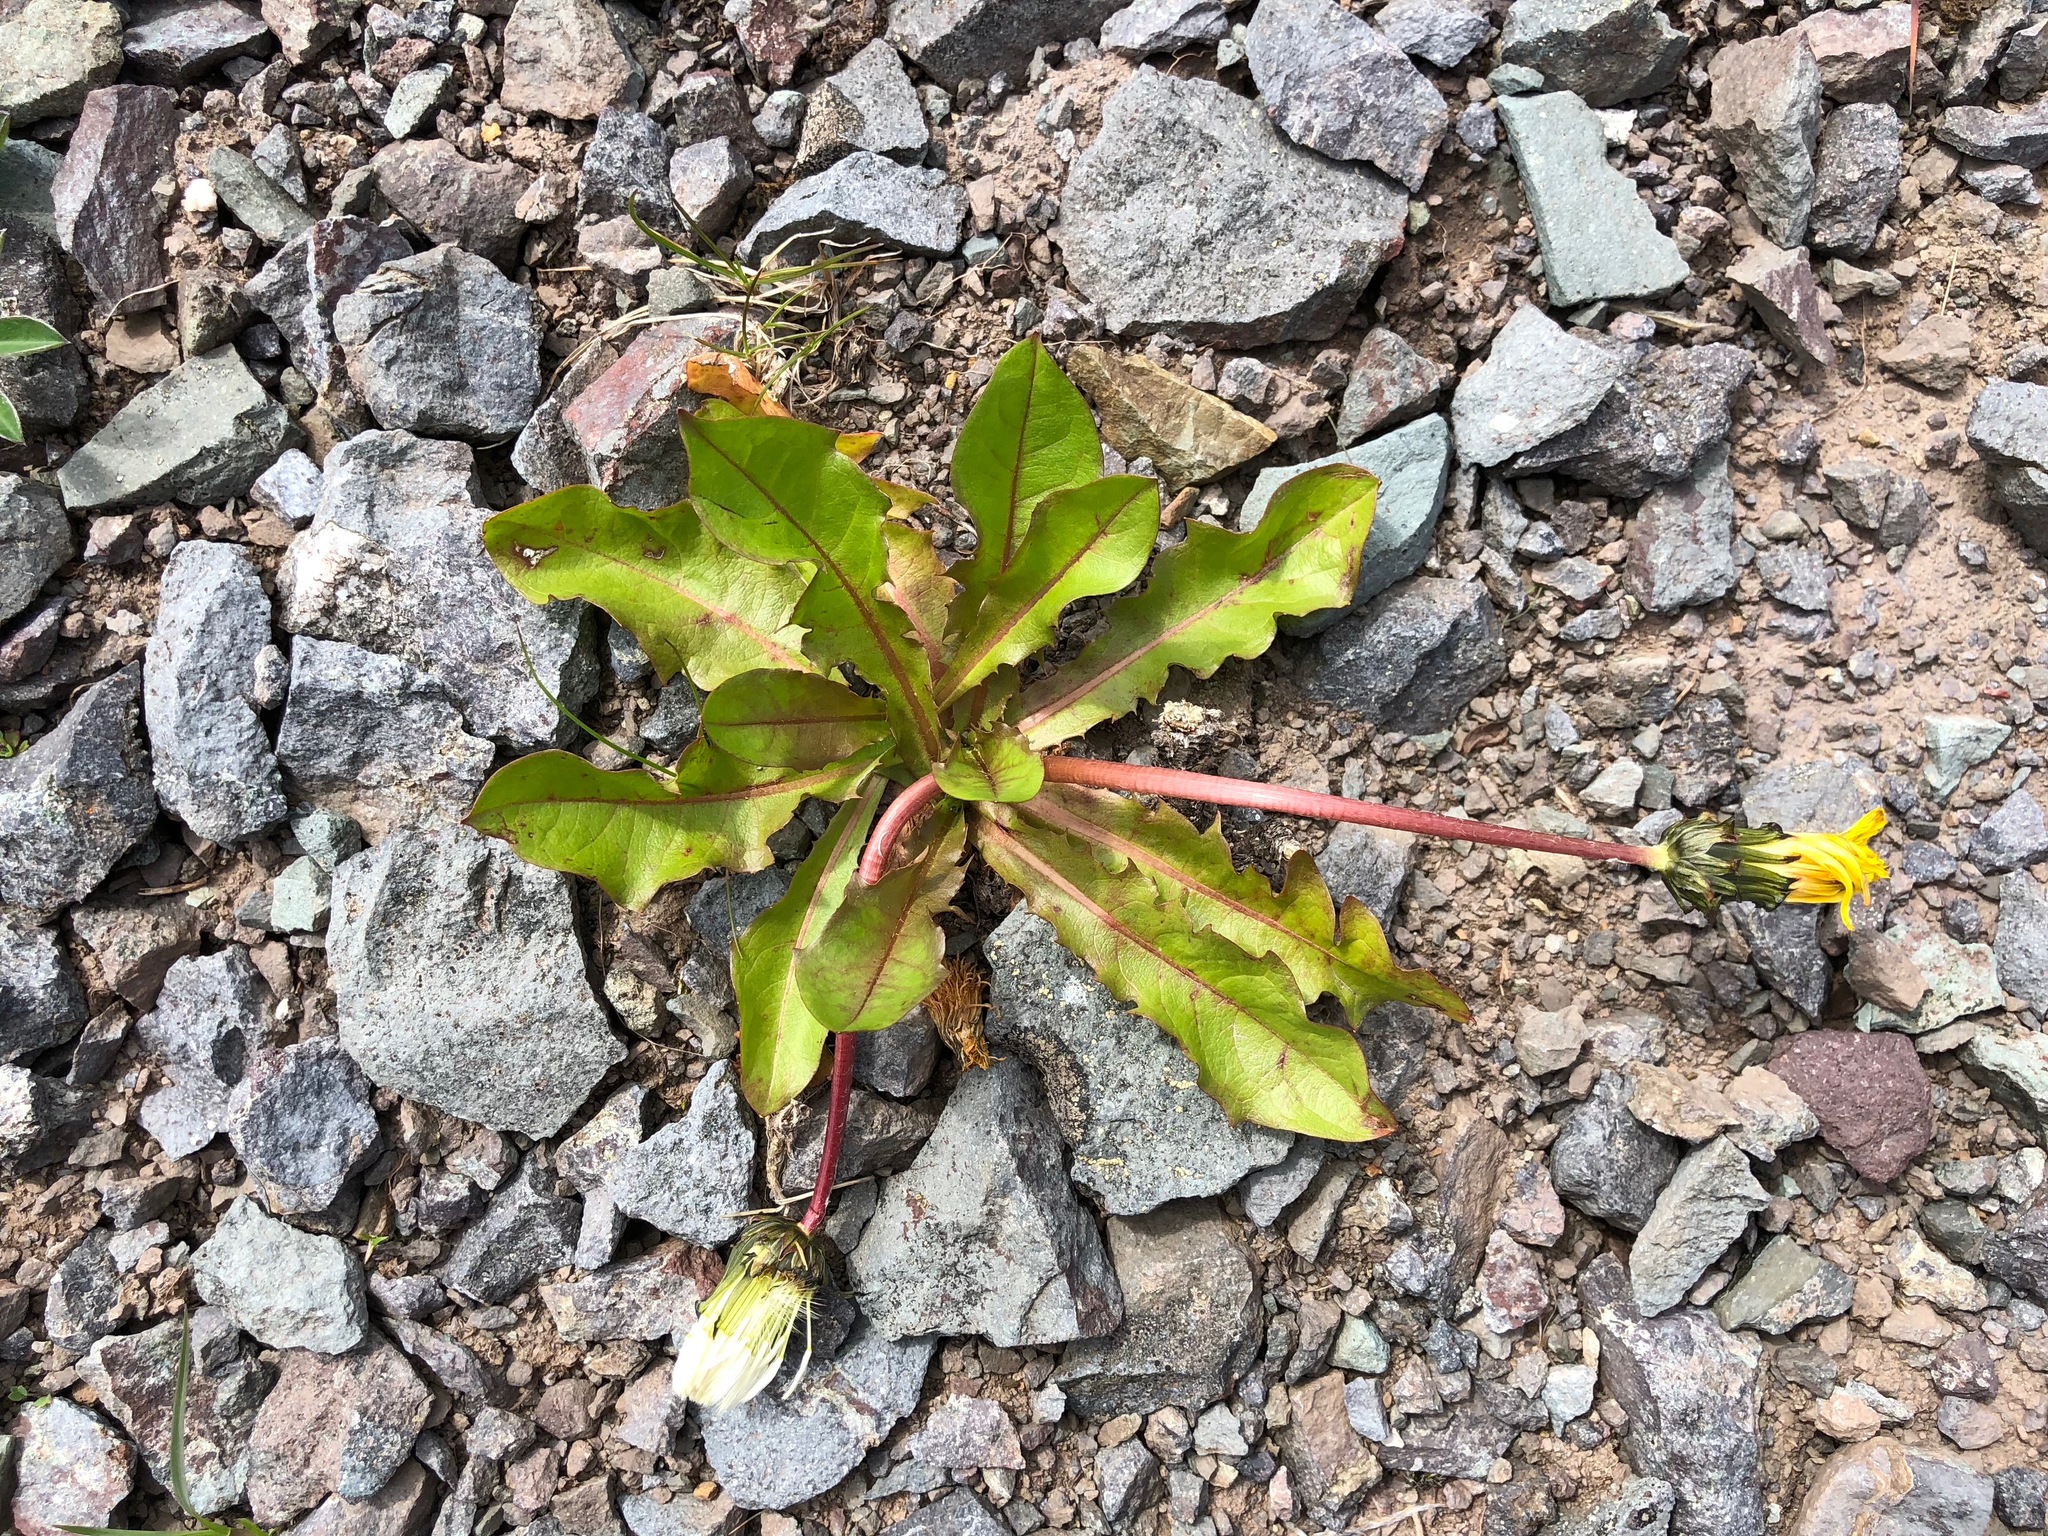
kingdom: Plantae
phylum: Tracheophyta
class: Magnoliopsida
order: Asterales
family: Asteraceae
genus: Taraxacum
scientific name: Taraxacum ceratophorum
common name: Horn-bearing dandelion
